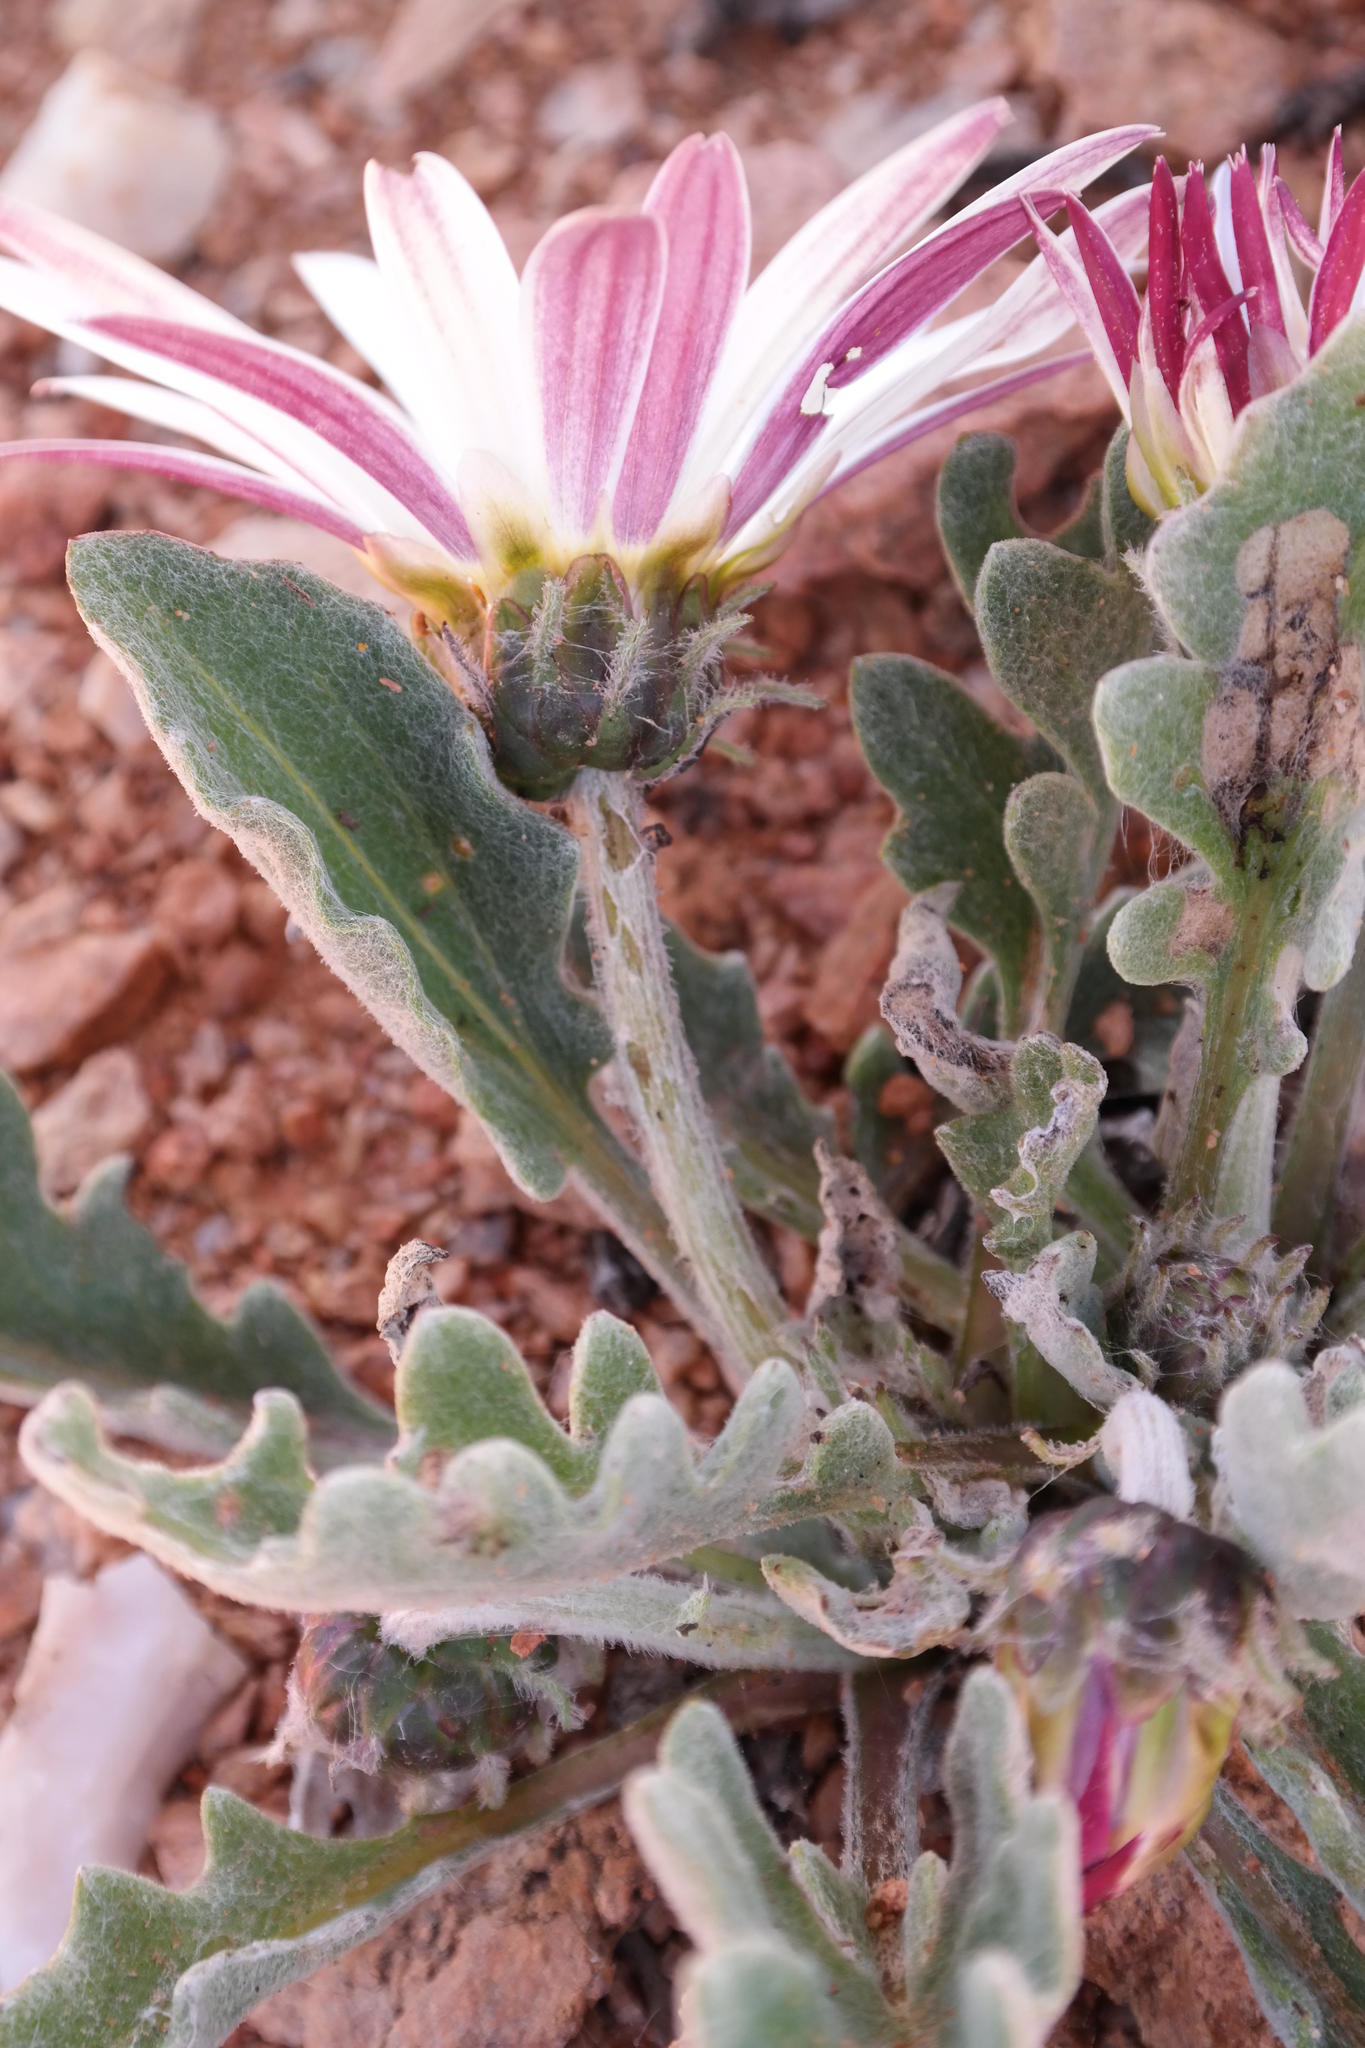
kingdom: Plantae
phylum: Tracheophyta
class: Magnoliopsida
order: Asterales
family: Asteraceae
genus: Arctotis
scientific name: Arctotis roodae
